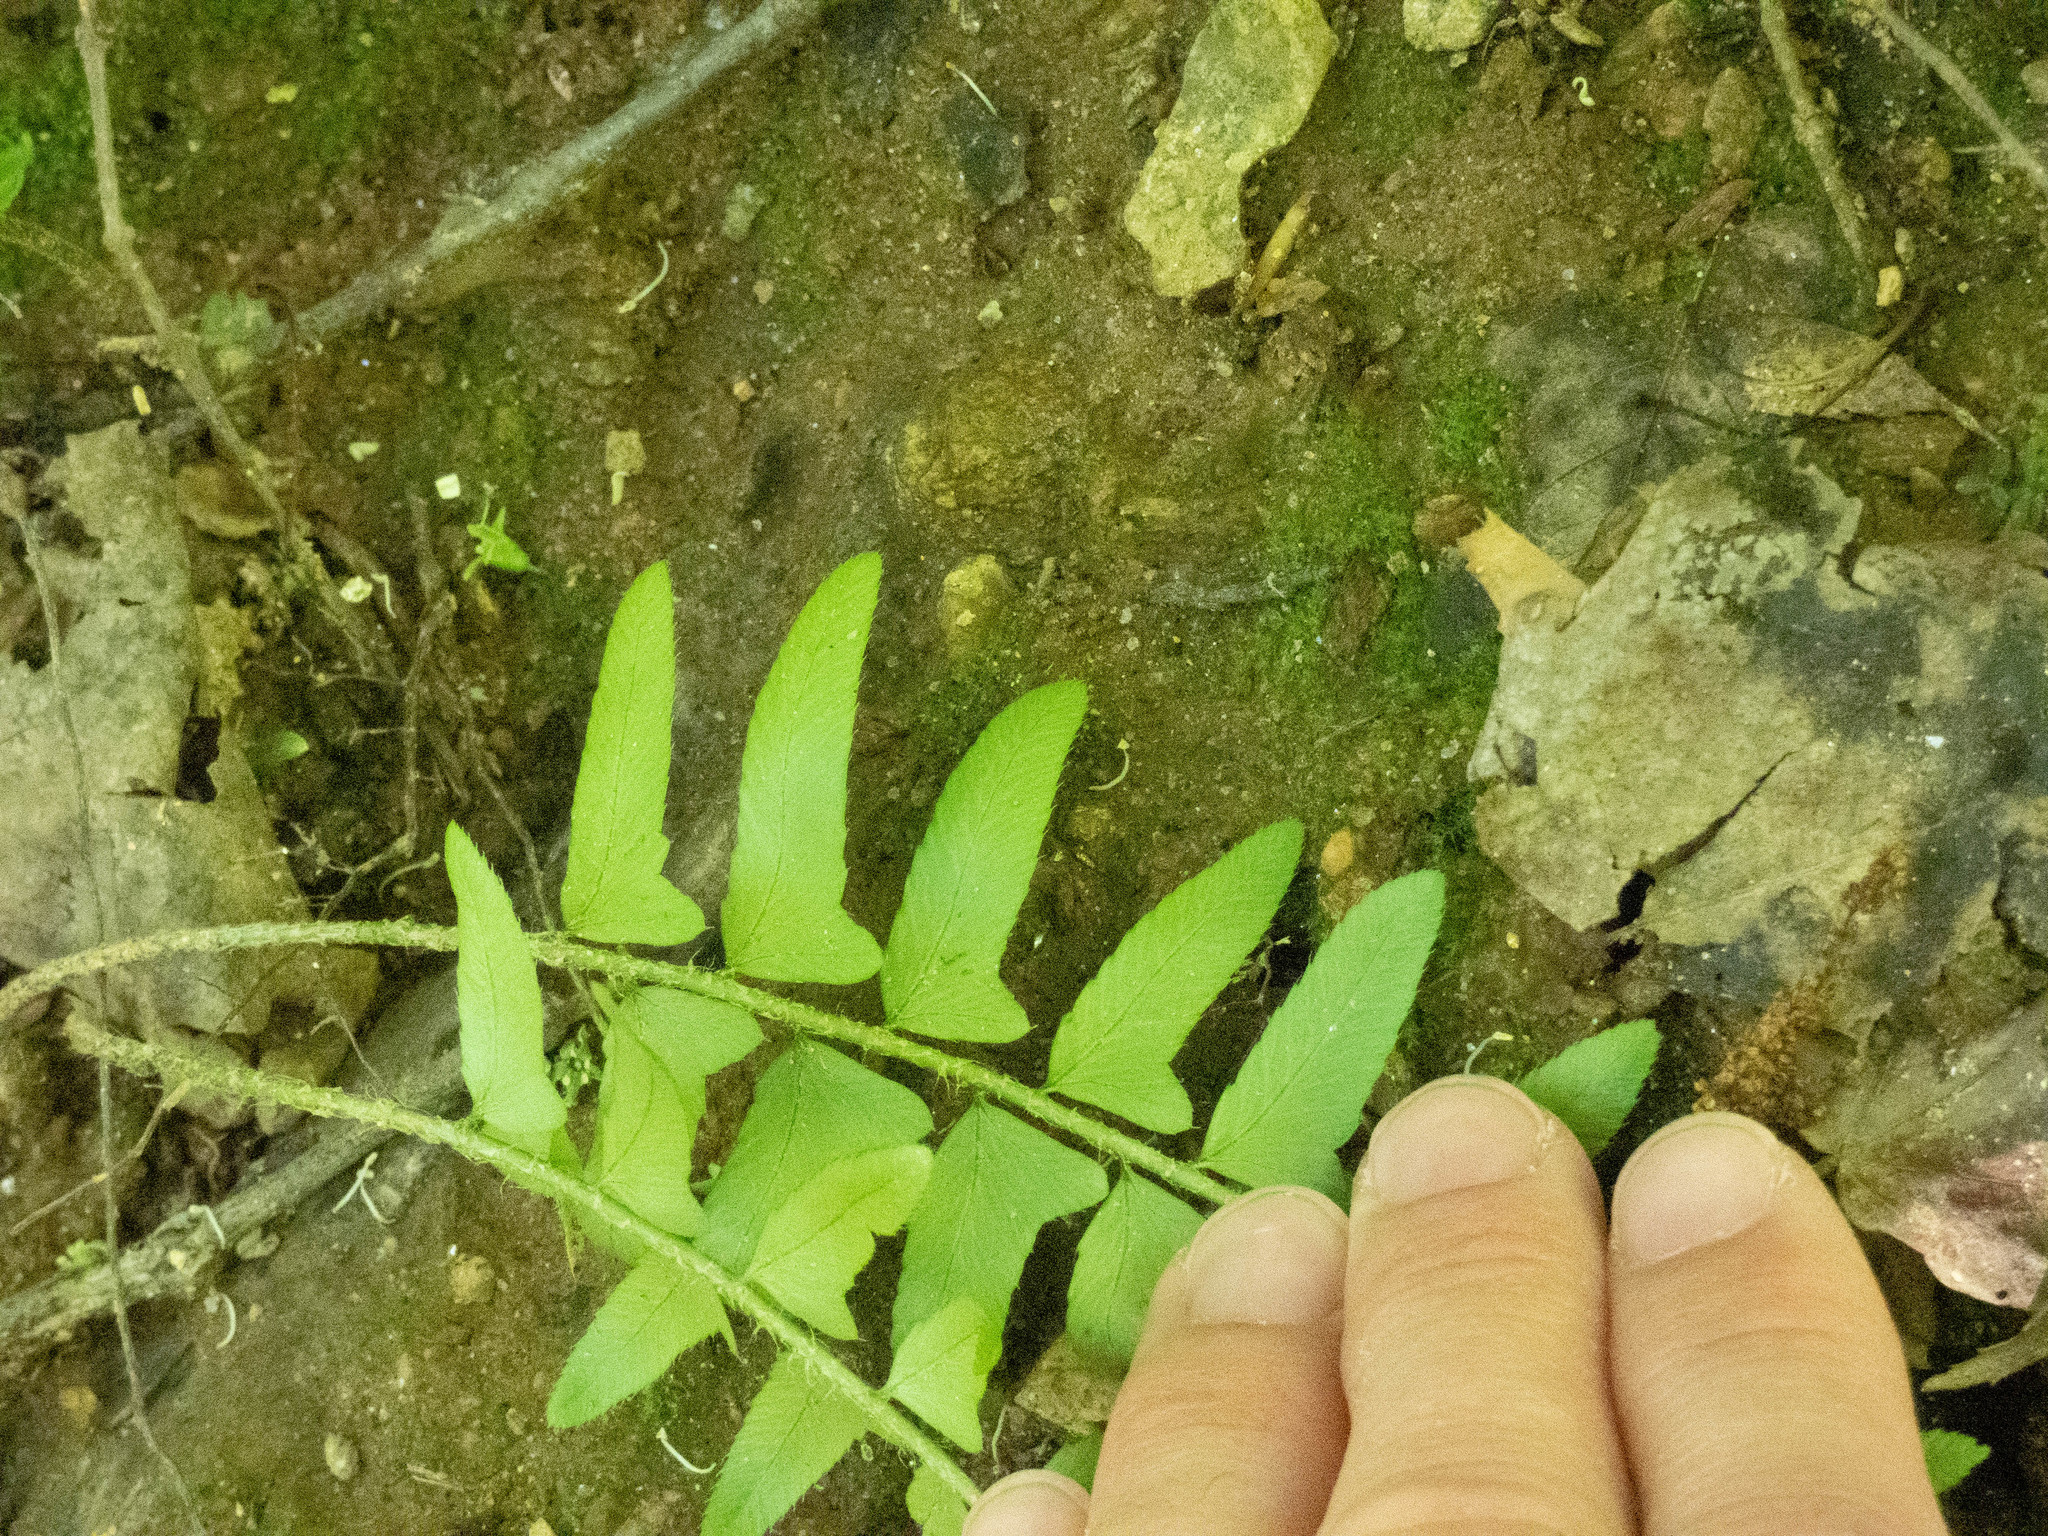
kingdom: Plantae
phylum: Tracheophyta
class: Polypodiopsida
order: Polypodiales
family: Dryopteridaceae
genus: Polystichum
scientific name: Polystichum acrostichoides
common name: Christmas fern
